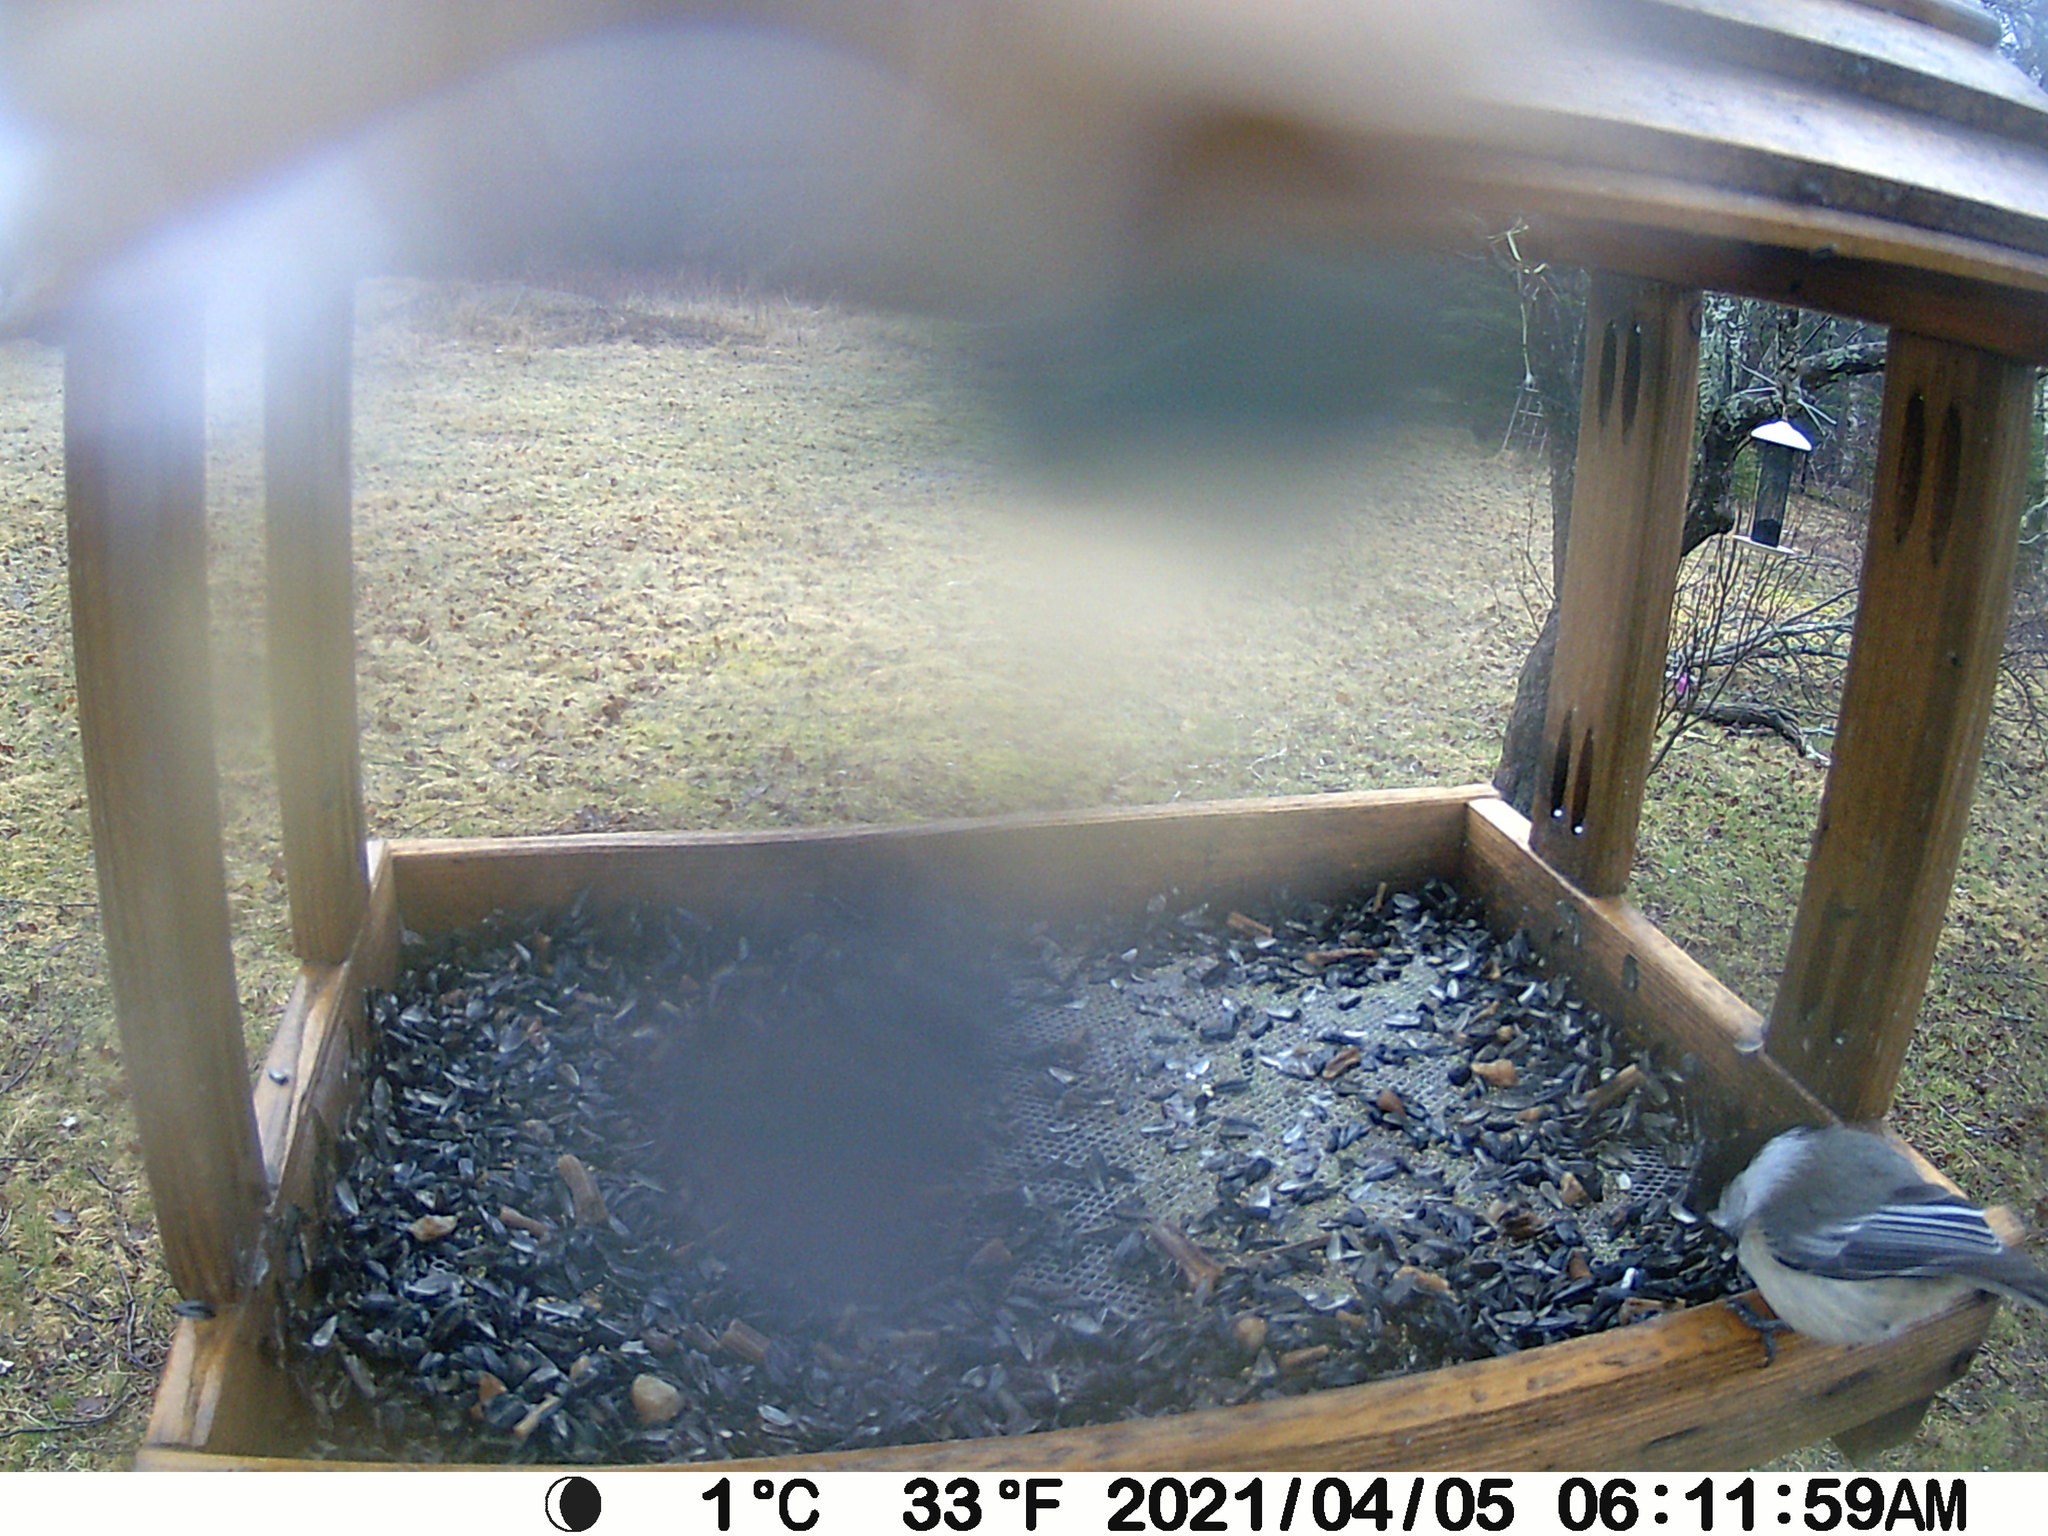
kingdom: Animalia
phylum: Chordata
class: Aves
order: Passeriformes
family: Paridae
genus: Poecile
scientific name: Poecile atricapillus
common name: Black-capped chickadee
